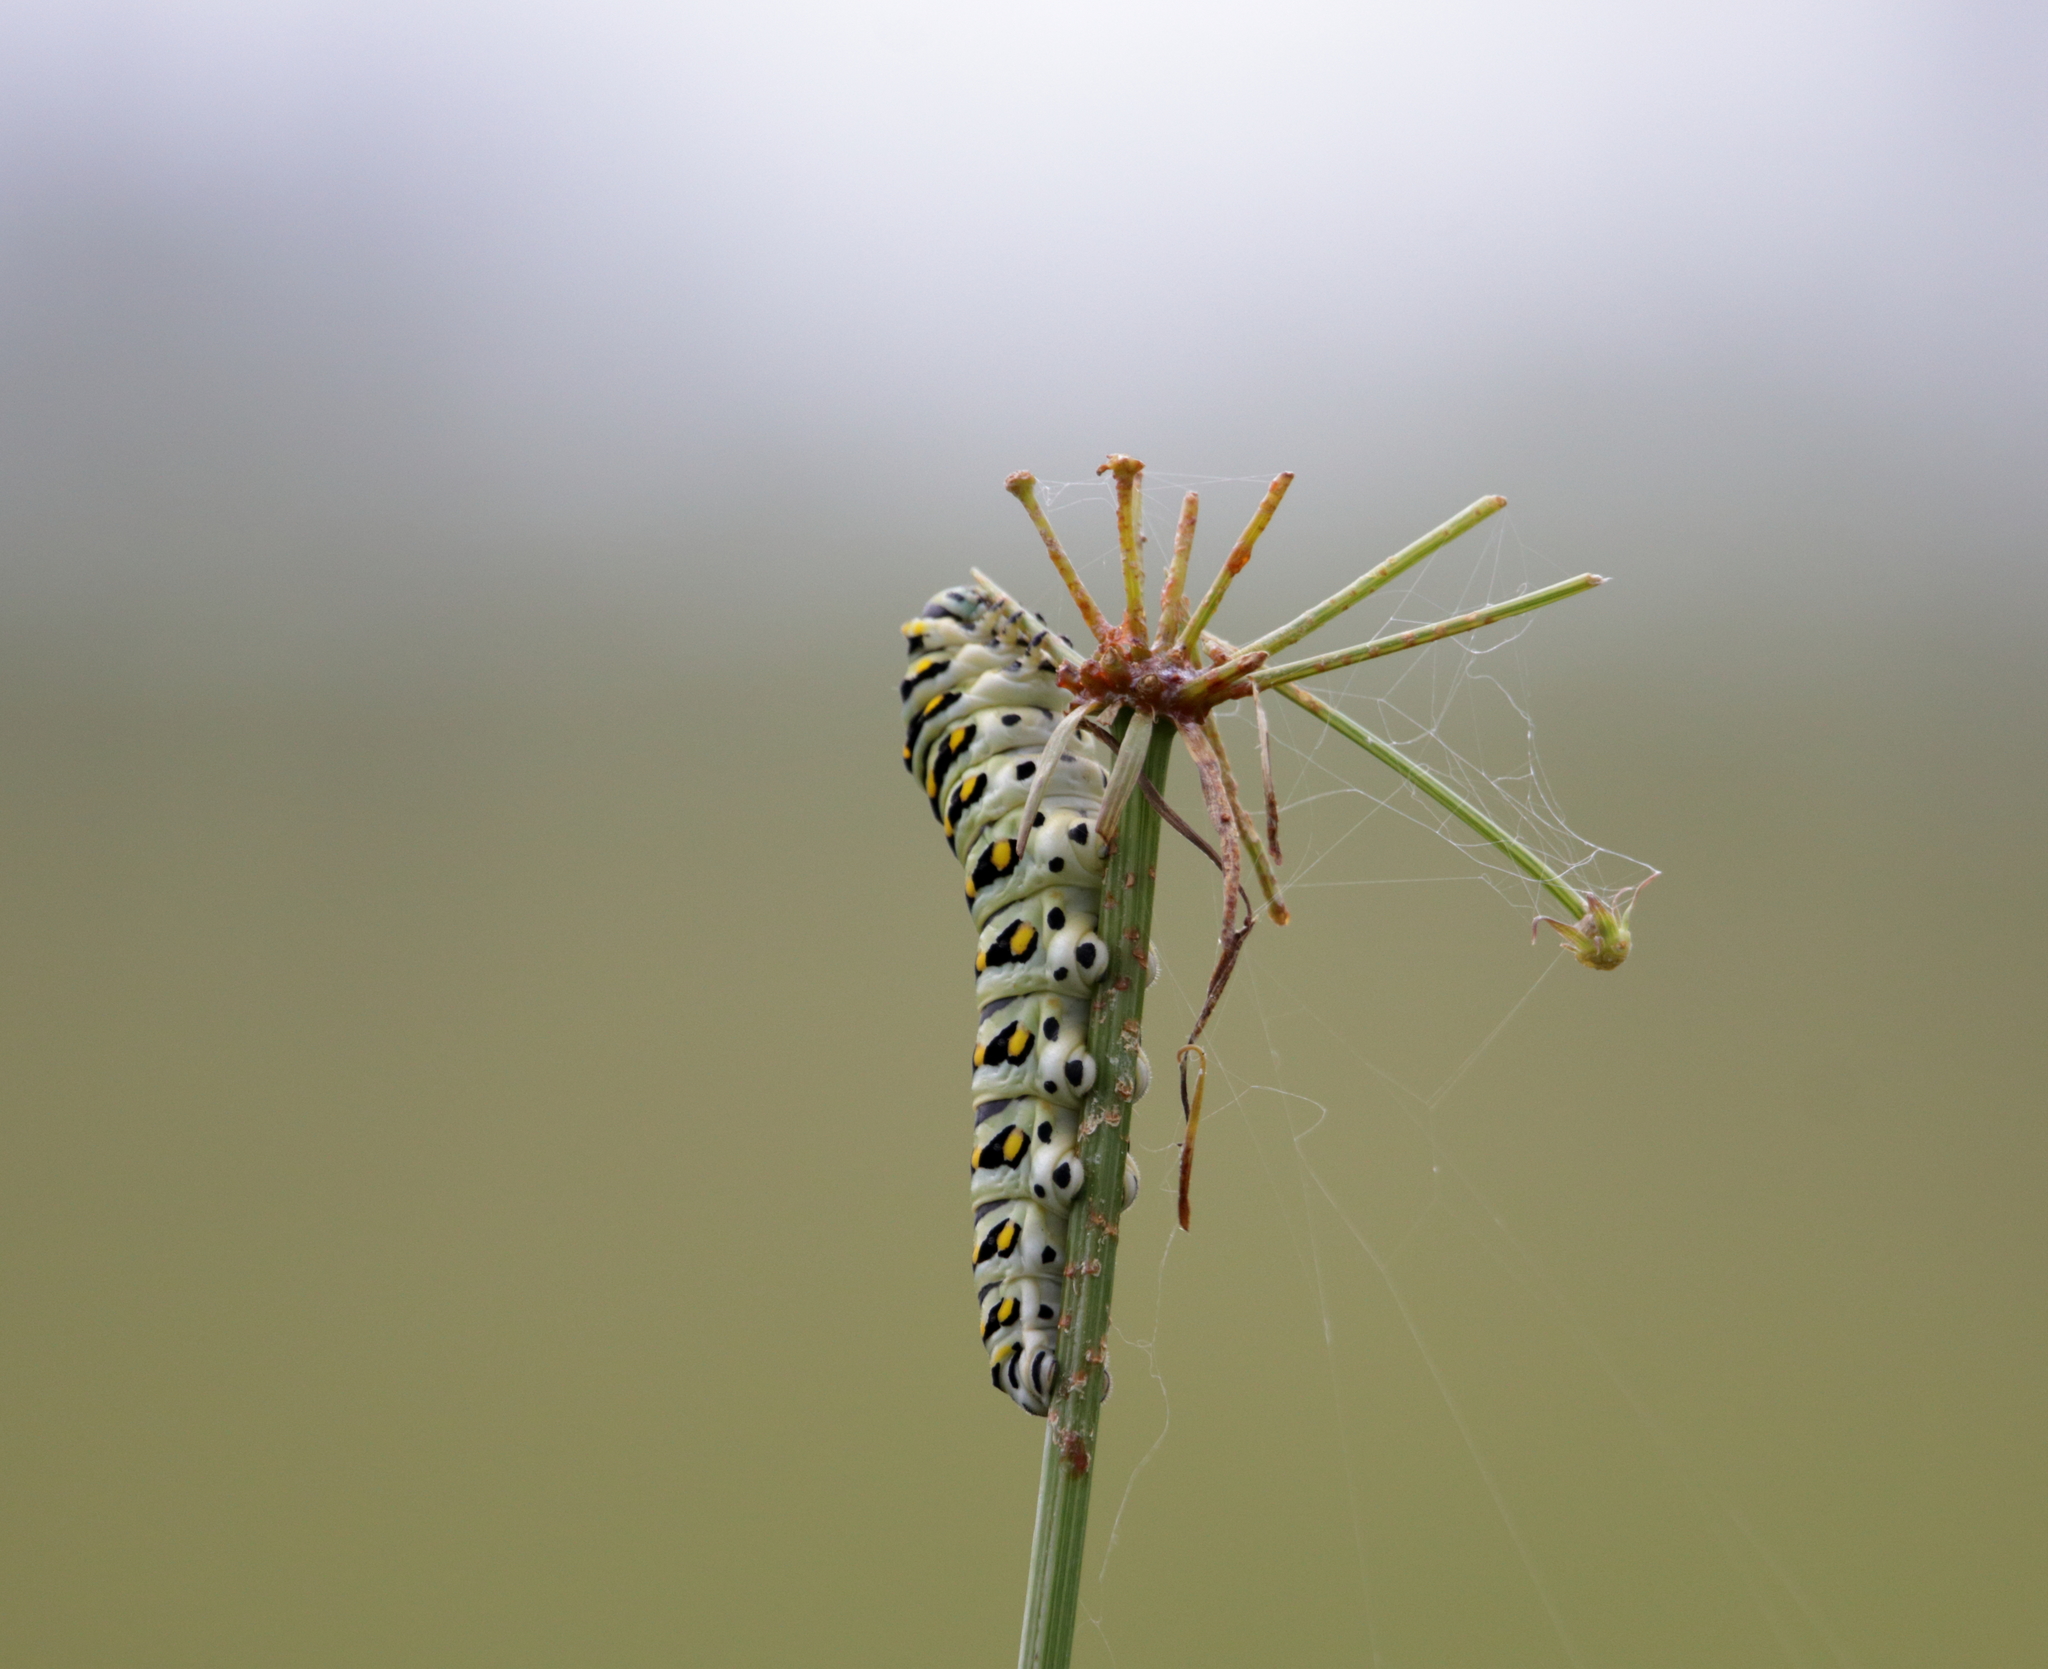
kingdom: Animalia
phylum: Arthropoda
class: Insecta
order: Lepidoptera
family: Papilionidae
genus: Papilio
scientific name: Papilio polyxenes
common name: Black swallowtail
